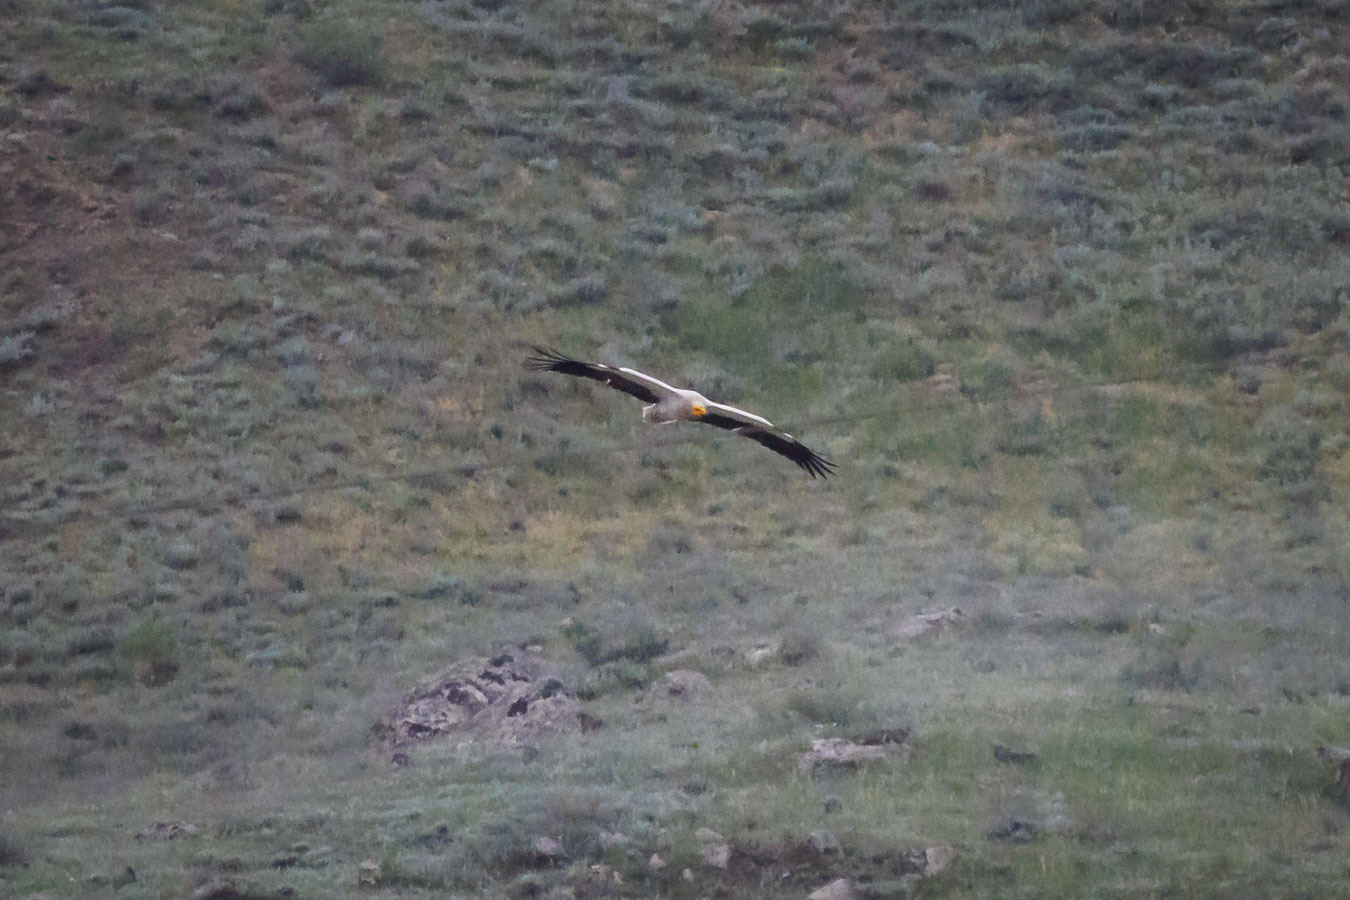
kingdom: Animalia
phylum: Chordata
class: Aves
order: Accipitriformes
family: Accipitridae
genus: Neophron
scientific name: Neophron percnopterus
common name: Egyptian vulture
